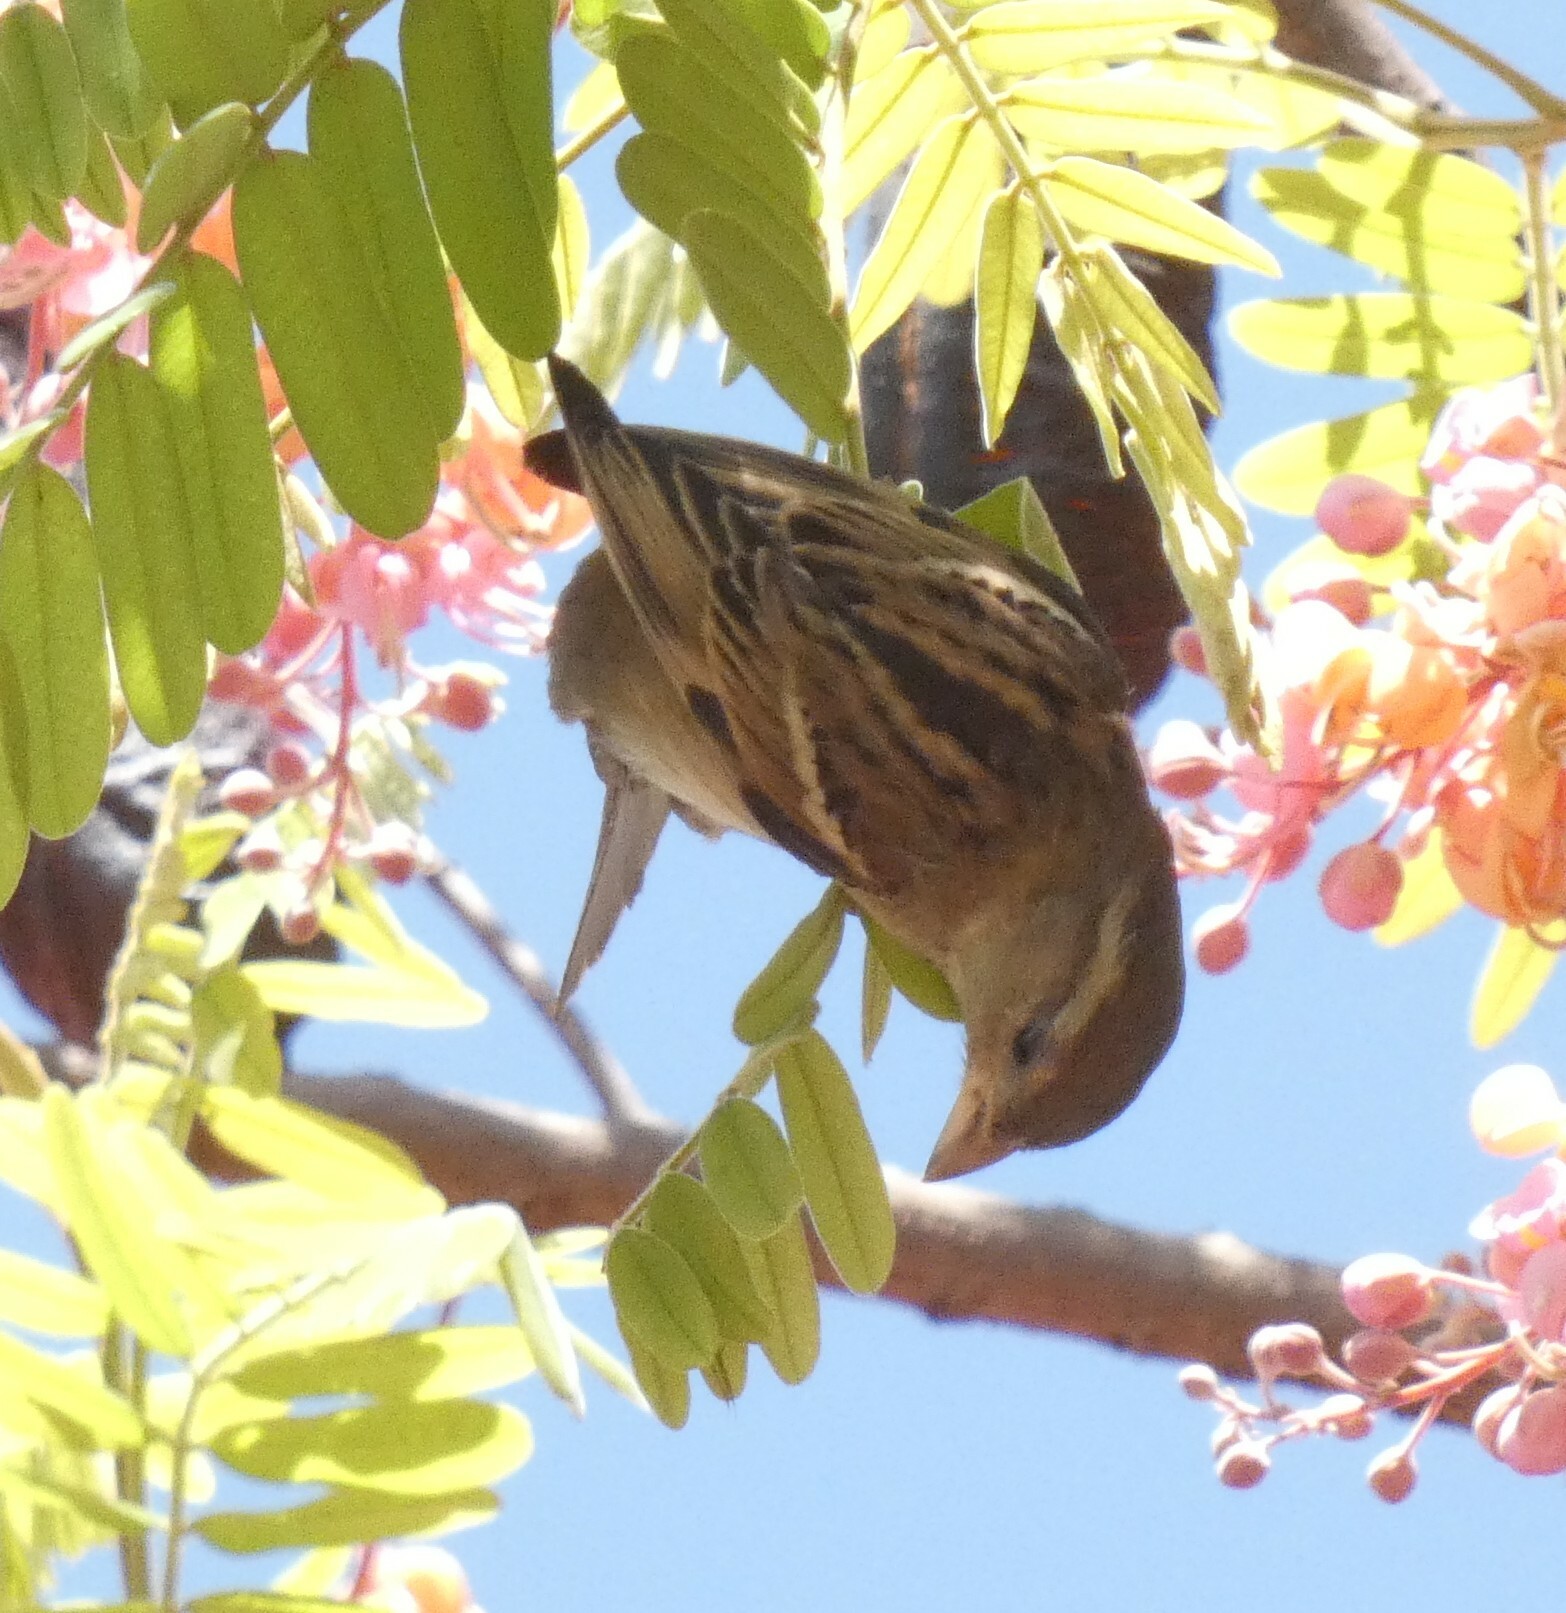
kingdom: Animalia
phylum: Chordata
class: Aves
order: Passeriformes
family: Passeridae
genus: Passer
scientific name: Passer domesticus
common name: House sparrow
